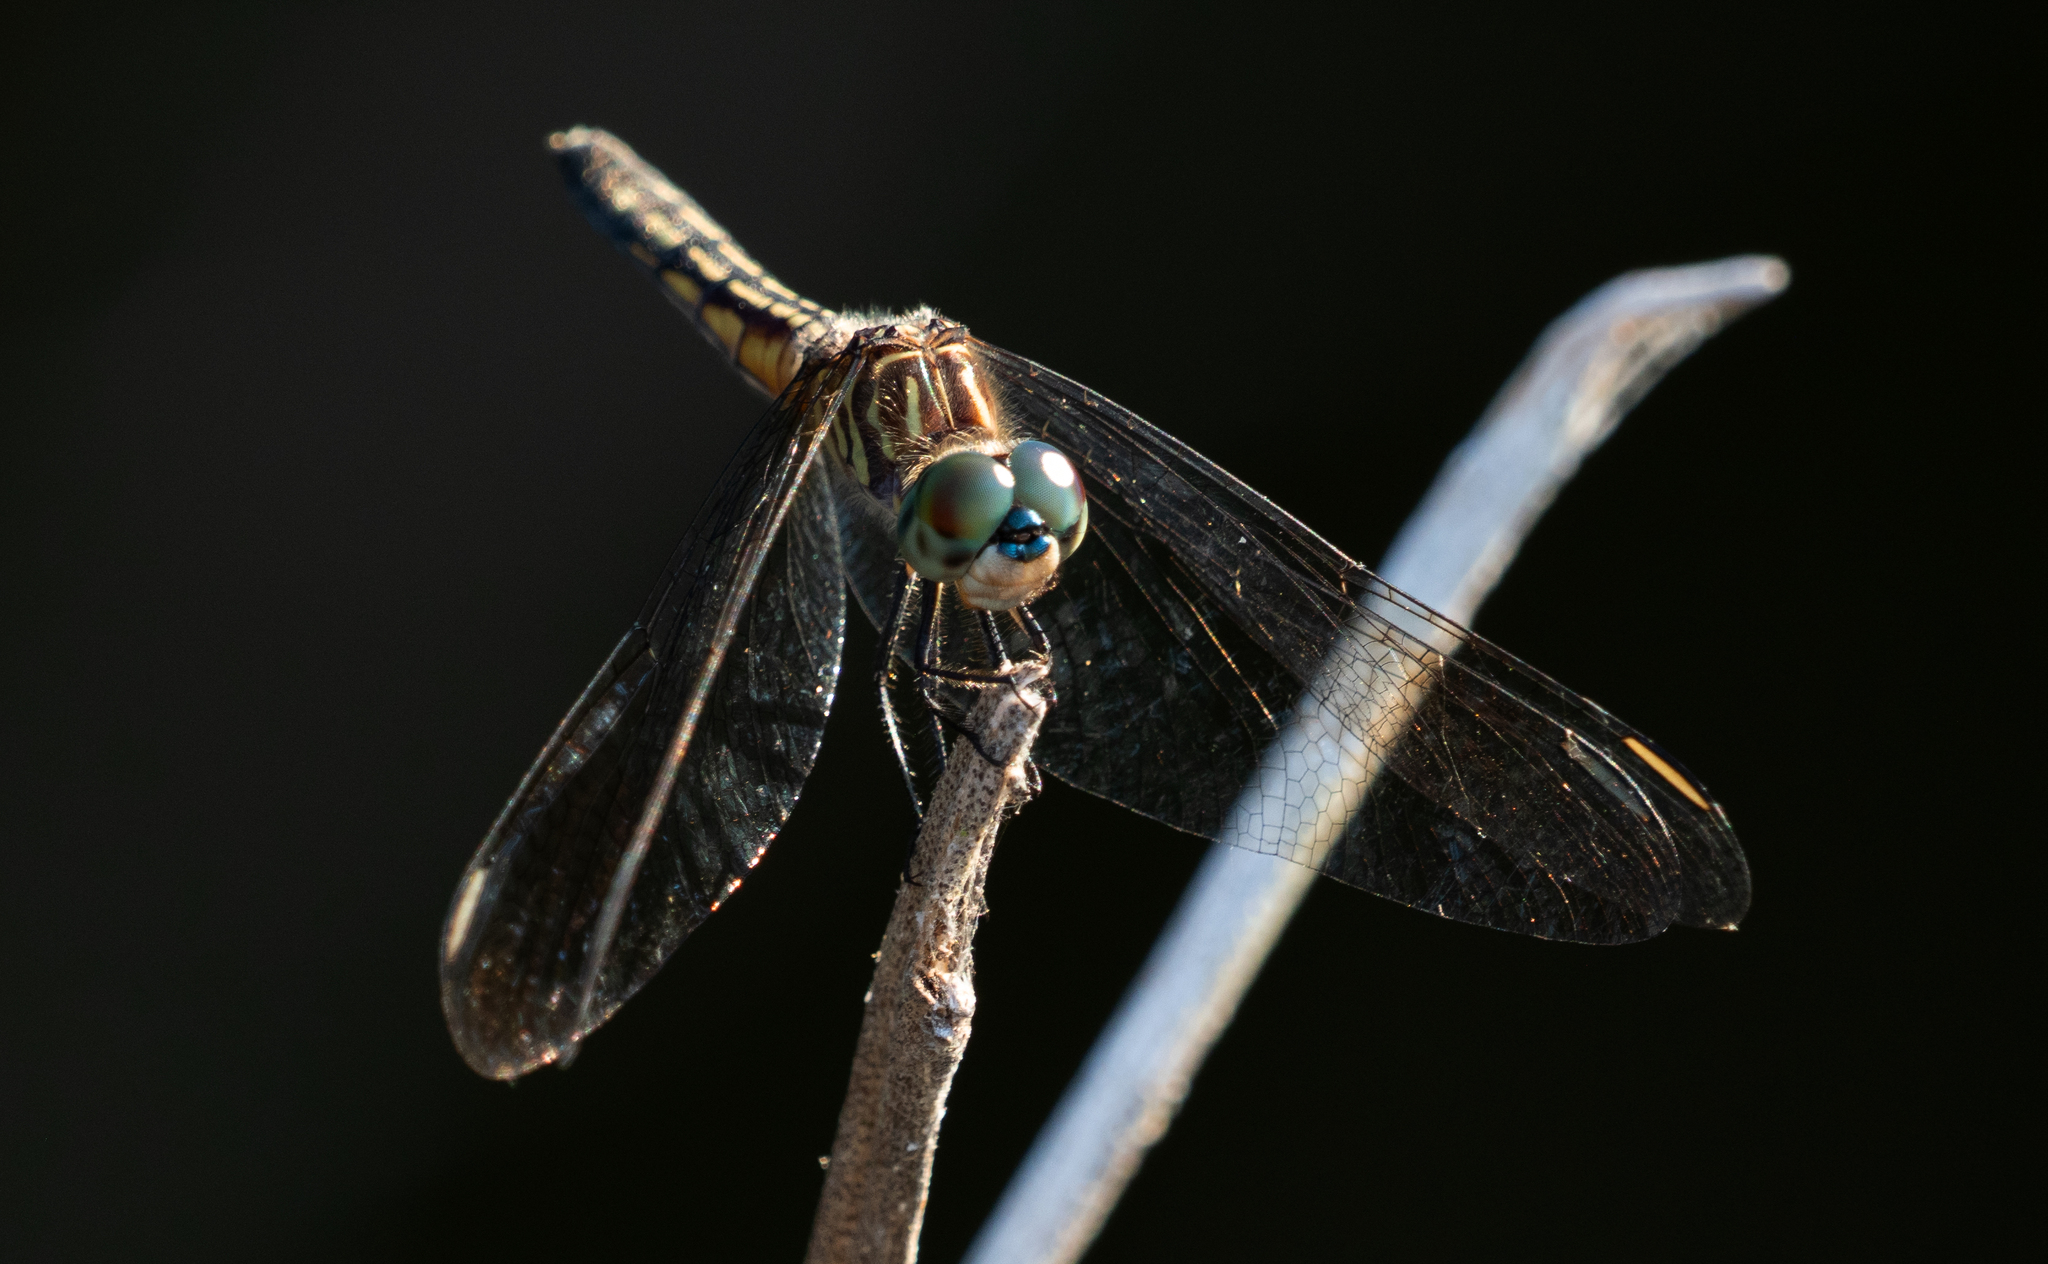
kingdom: Animalia
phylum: Arthropoda
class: Insecta
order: Odonata
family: Libellulidae
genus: Pachydiplax
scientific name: Pachydiplax longipennis
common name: Blue dasher
